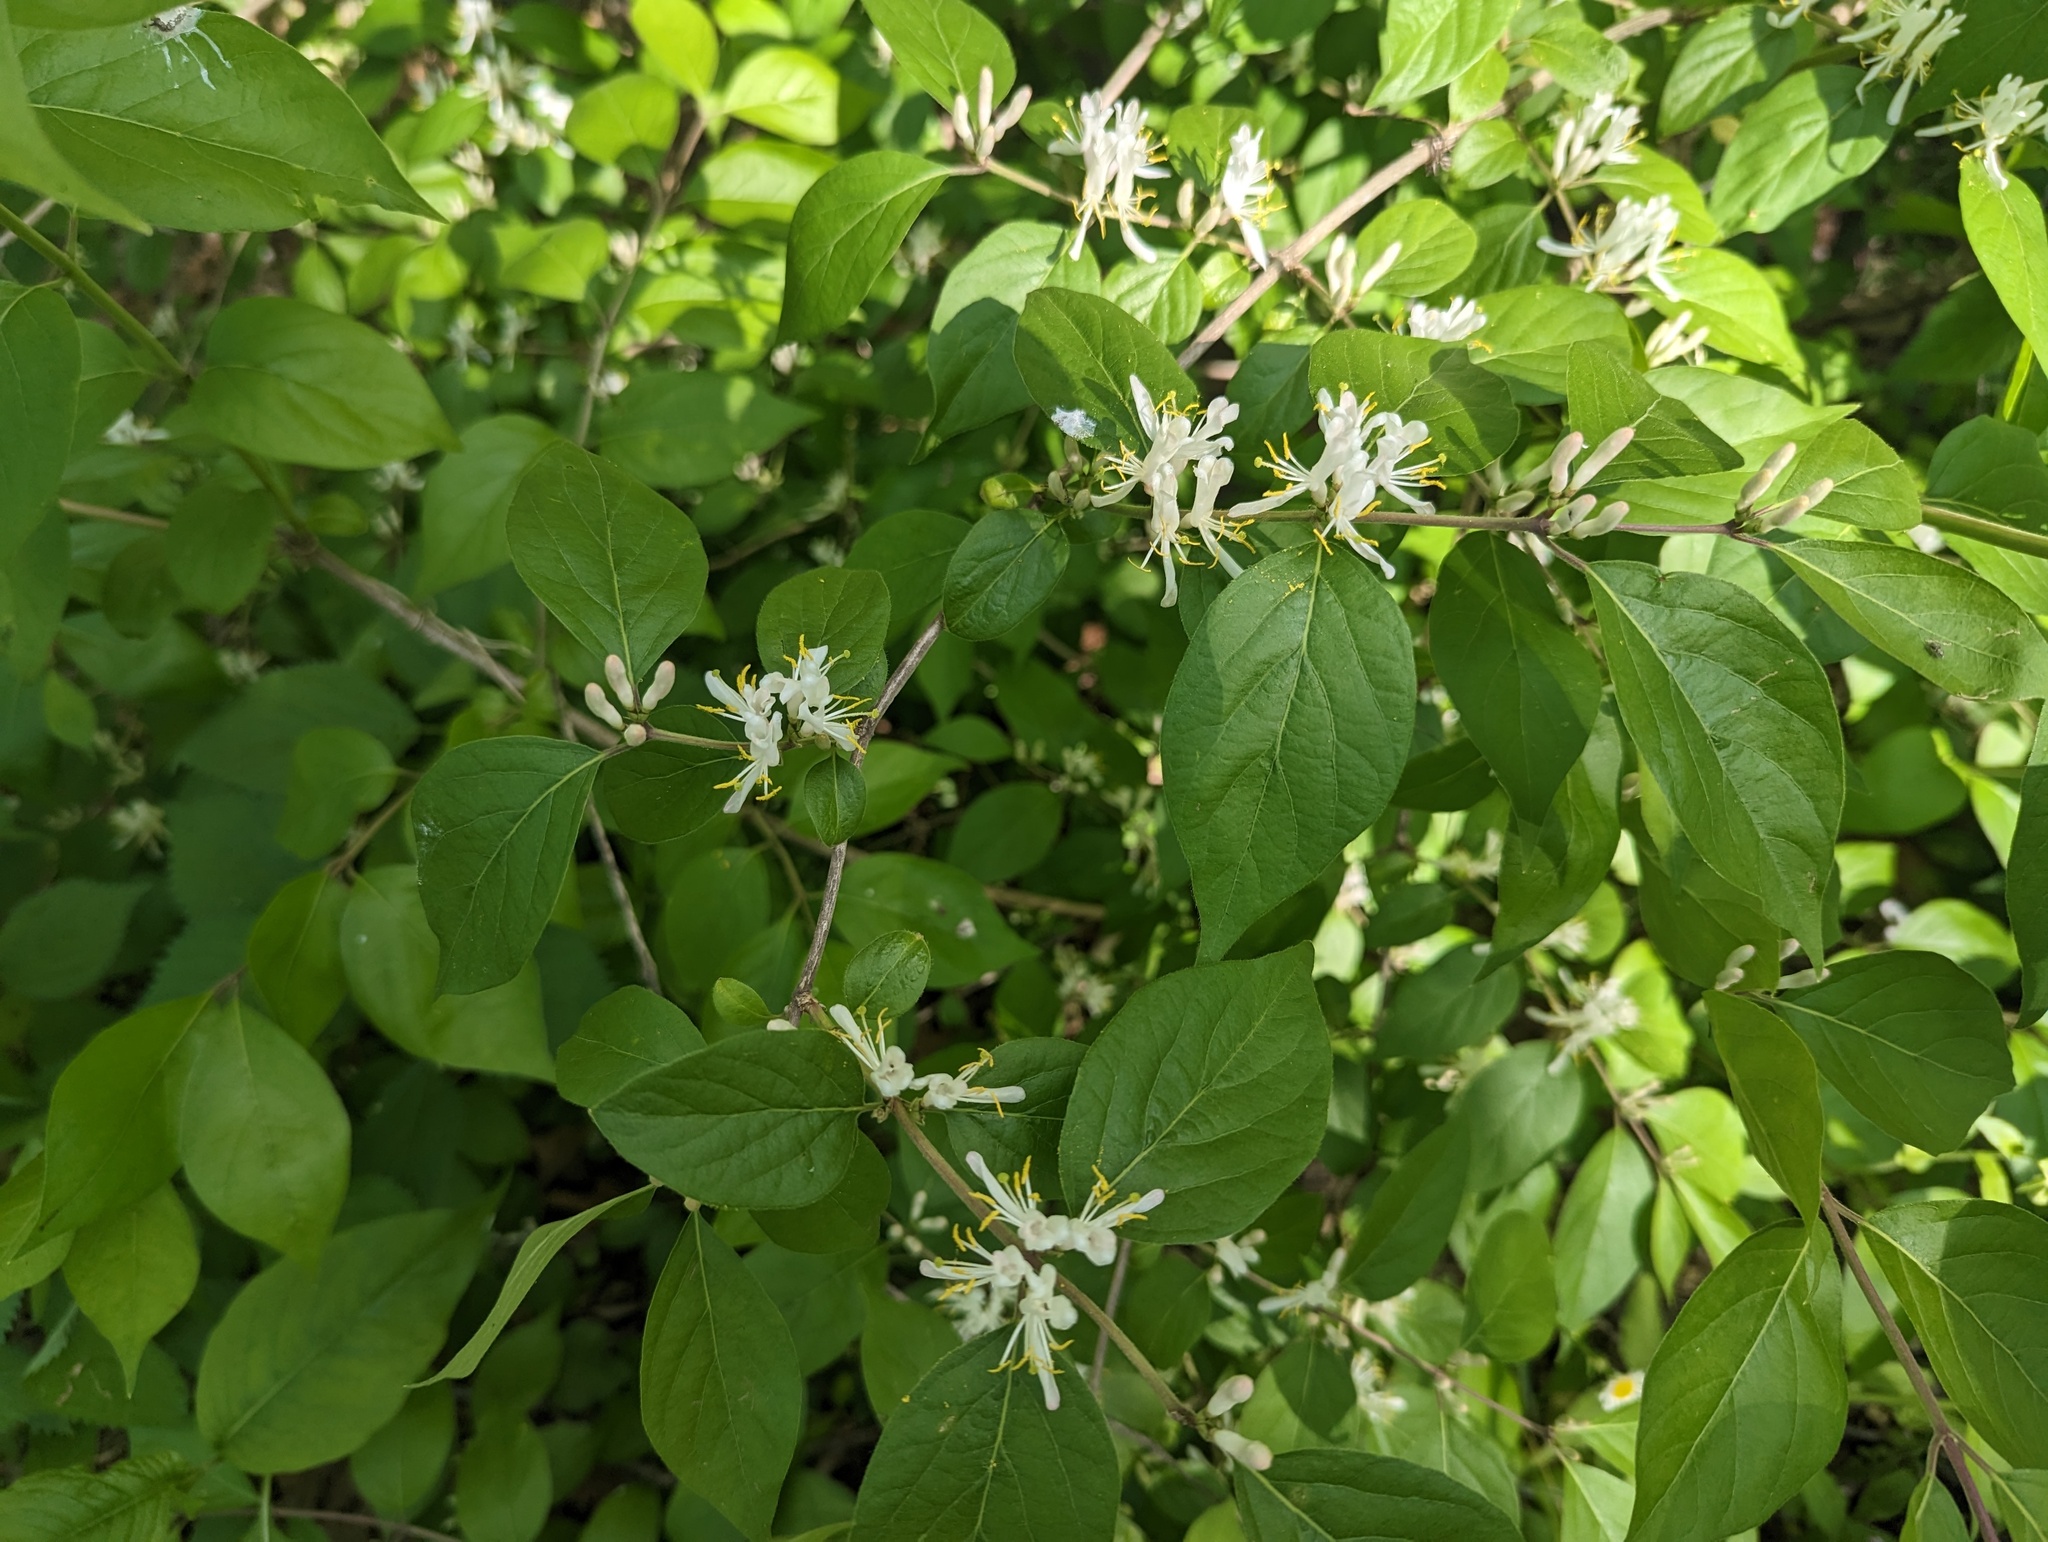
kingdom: Plantae
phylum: Tracheophyta
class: Magnoliopsida
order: Dipsacales
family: Caprifoliaceae
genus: Lonicera
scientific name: Lonicera maackii
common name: Amur honeysuckle
